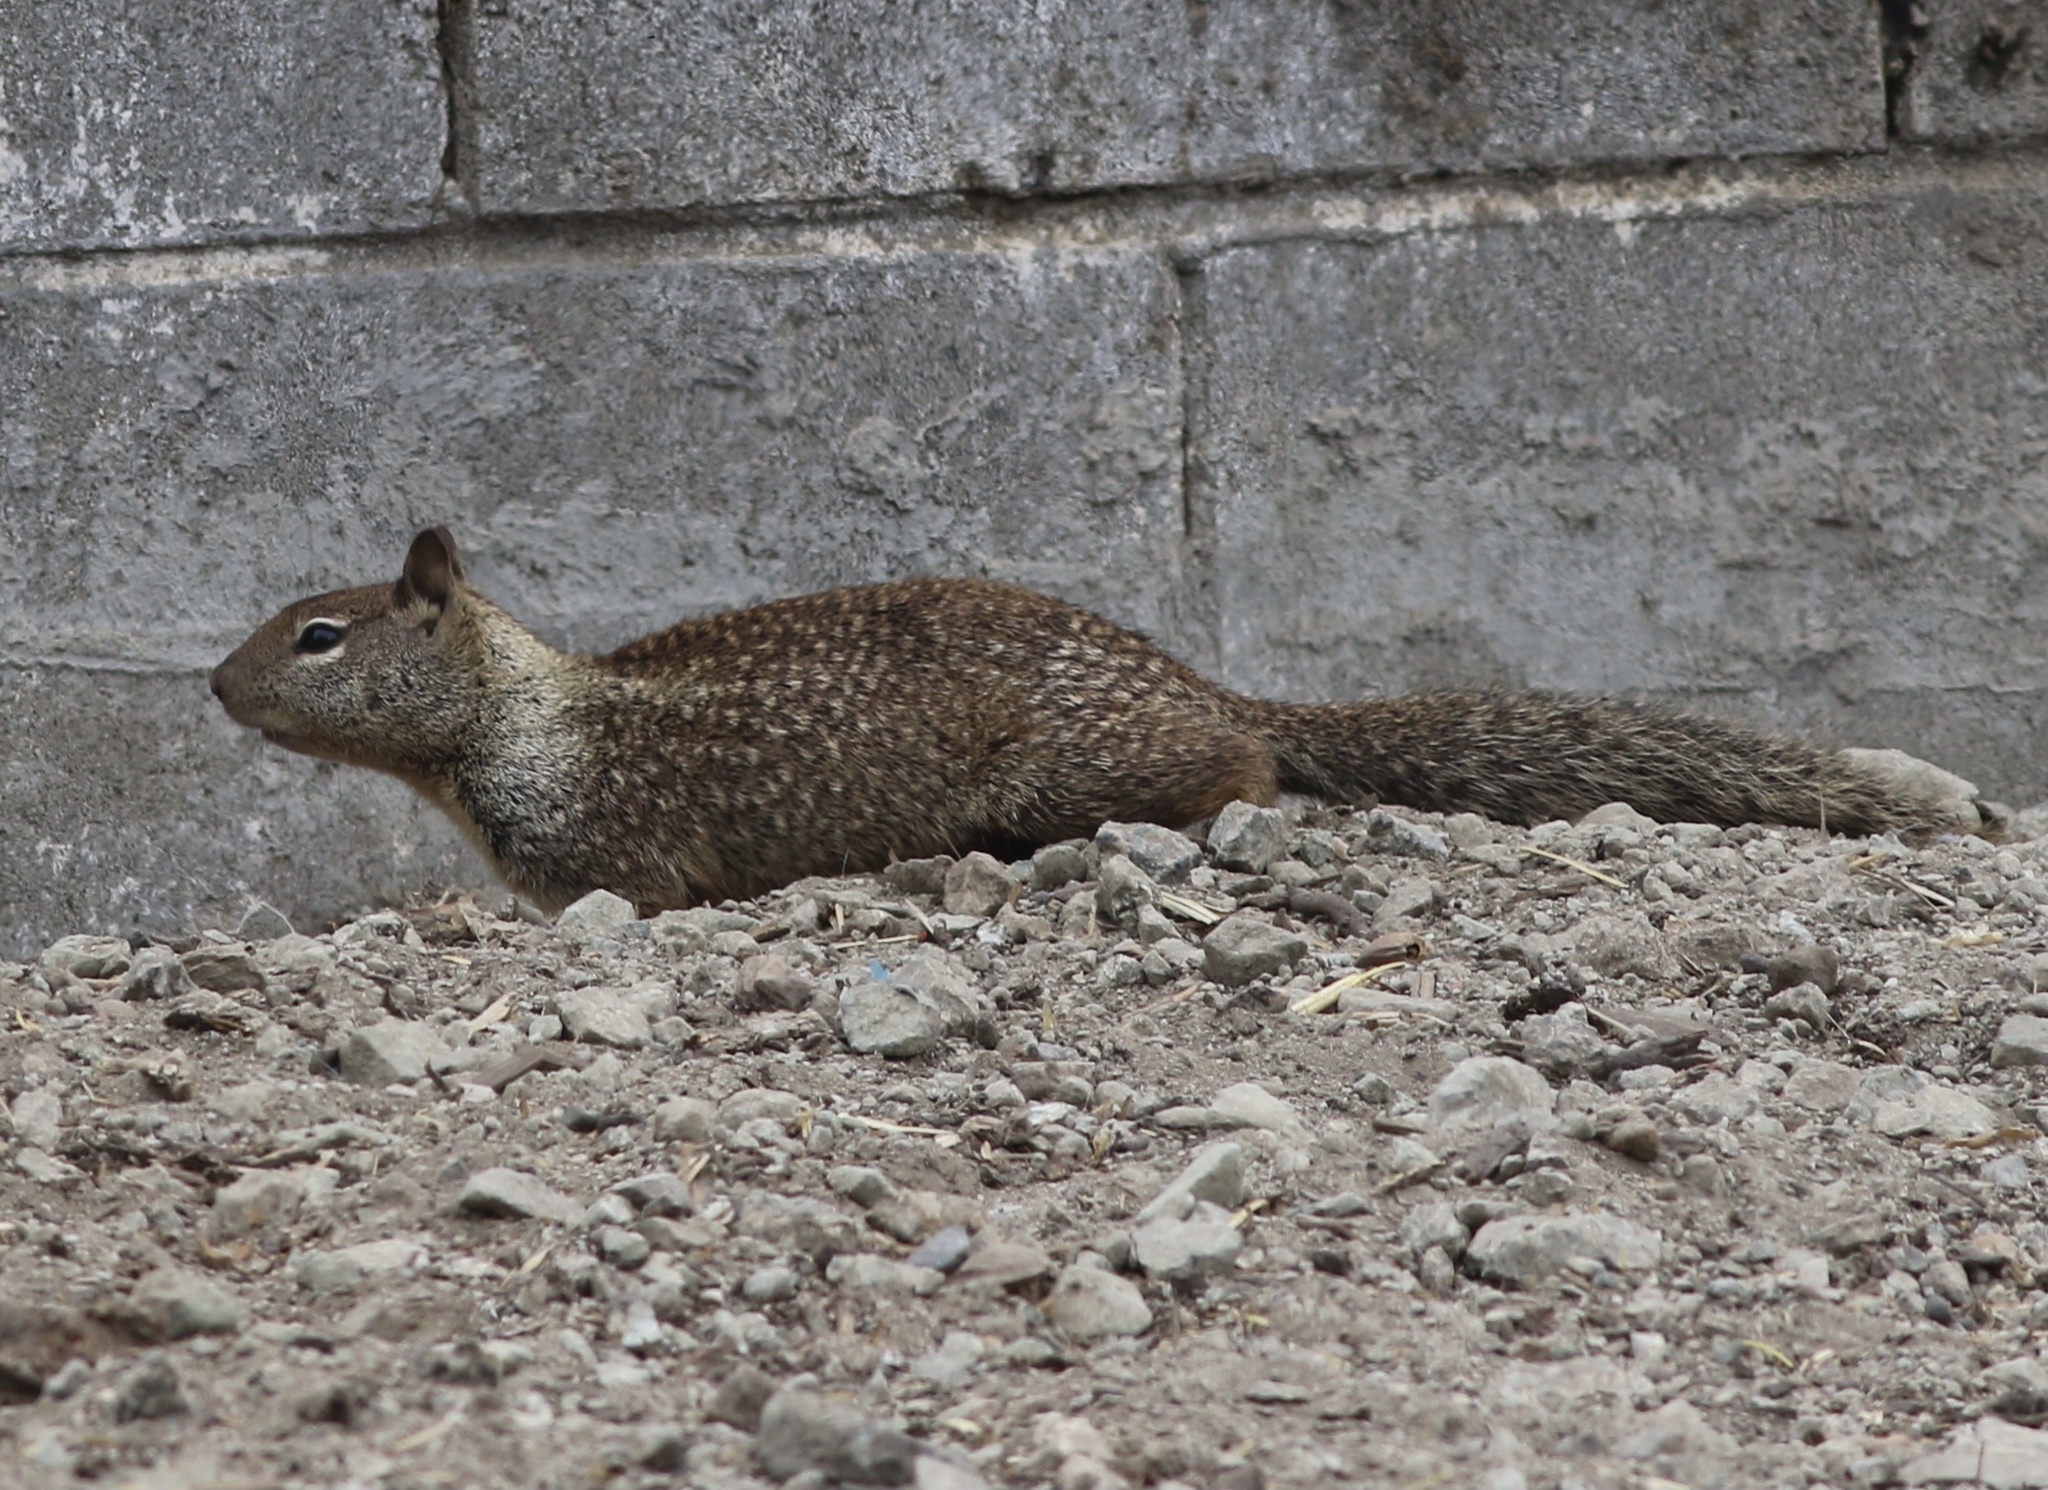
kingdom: Animalia
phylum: Chordata
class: Mammalia
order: Rodentia
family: Sciuridae
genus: Otospermophilus
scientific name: Otospermophilus beecheyi
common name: California ground squirrel
